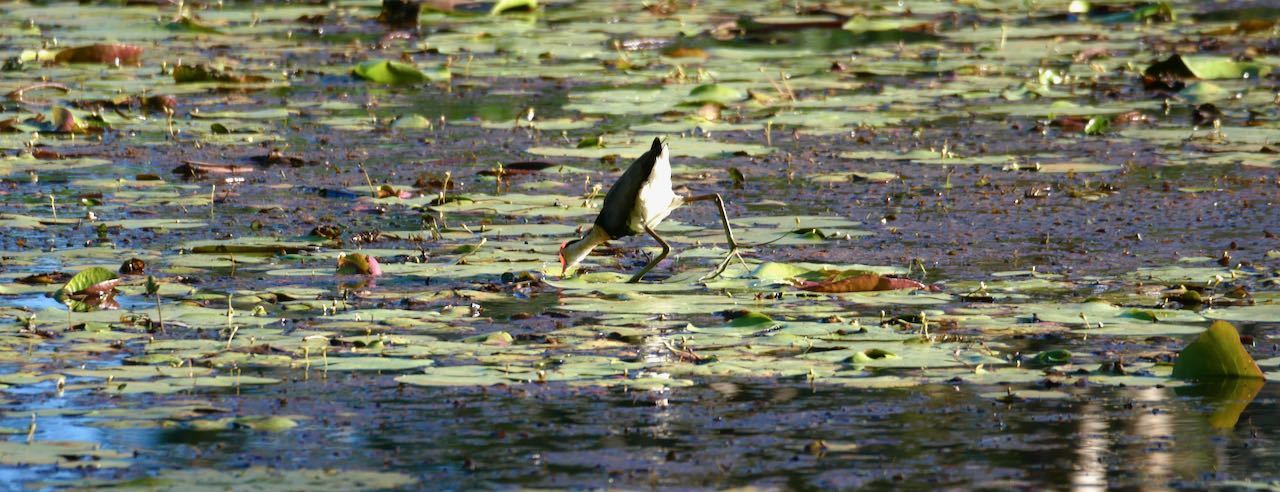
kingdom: Animalia
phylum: Chordata
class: Aves
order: Charadriiformes
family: Jacanidae
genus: Irediparra
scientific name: Irediparra gallinacea
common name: Comb-crested jacana
